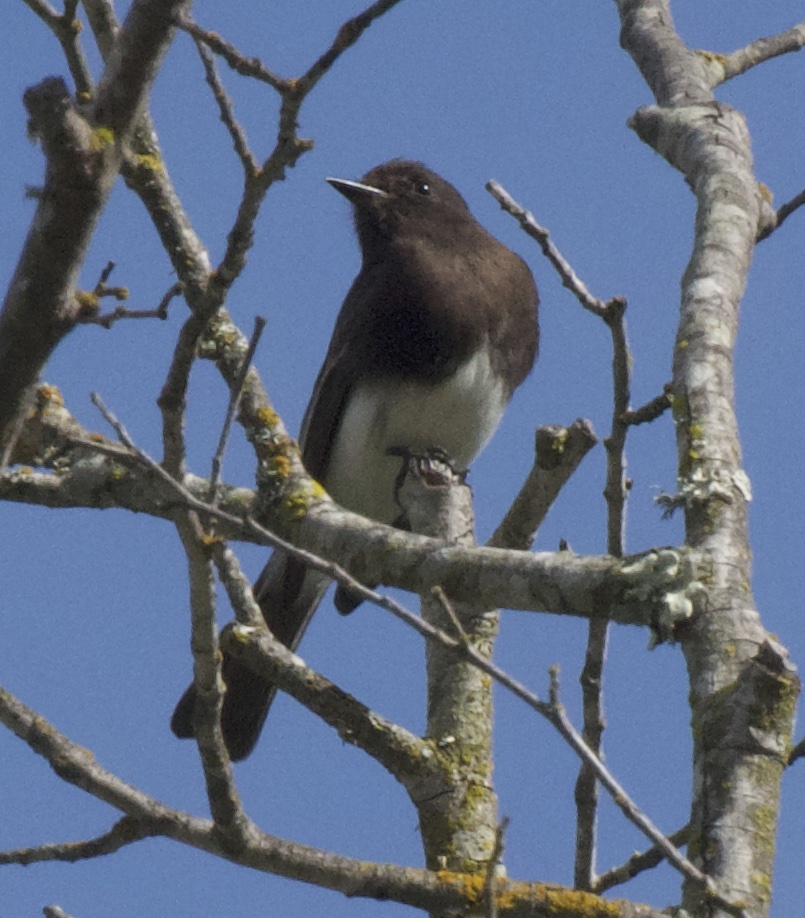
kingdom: Animalia
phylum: Chordata
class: Aves
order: Passeriformes
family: Tyrannidae
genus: Sayornis
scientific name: Sayornis nigricans
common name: Black phoebe
